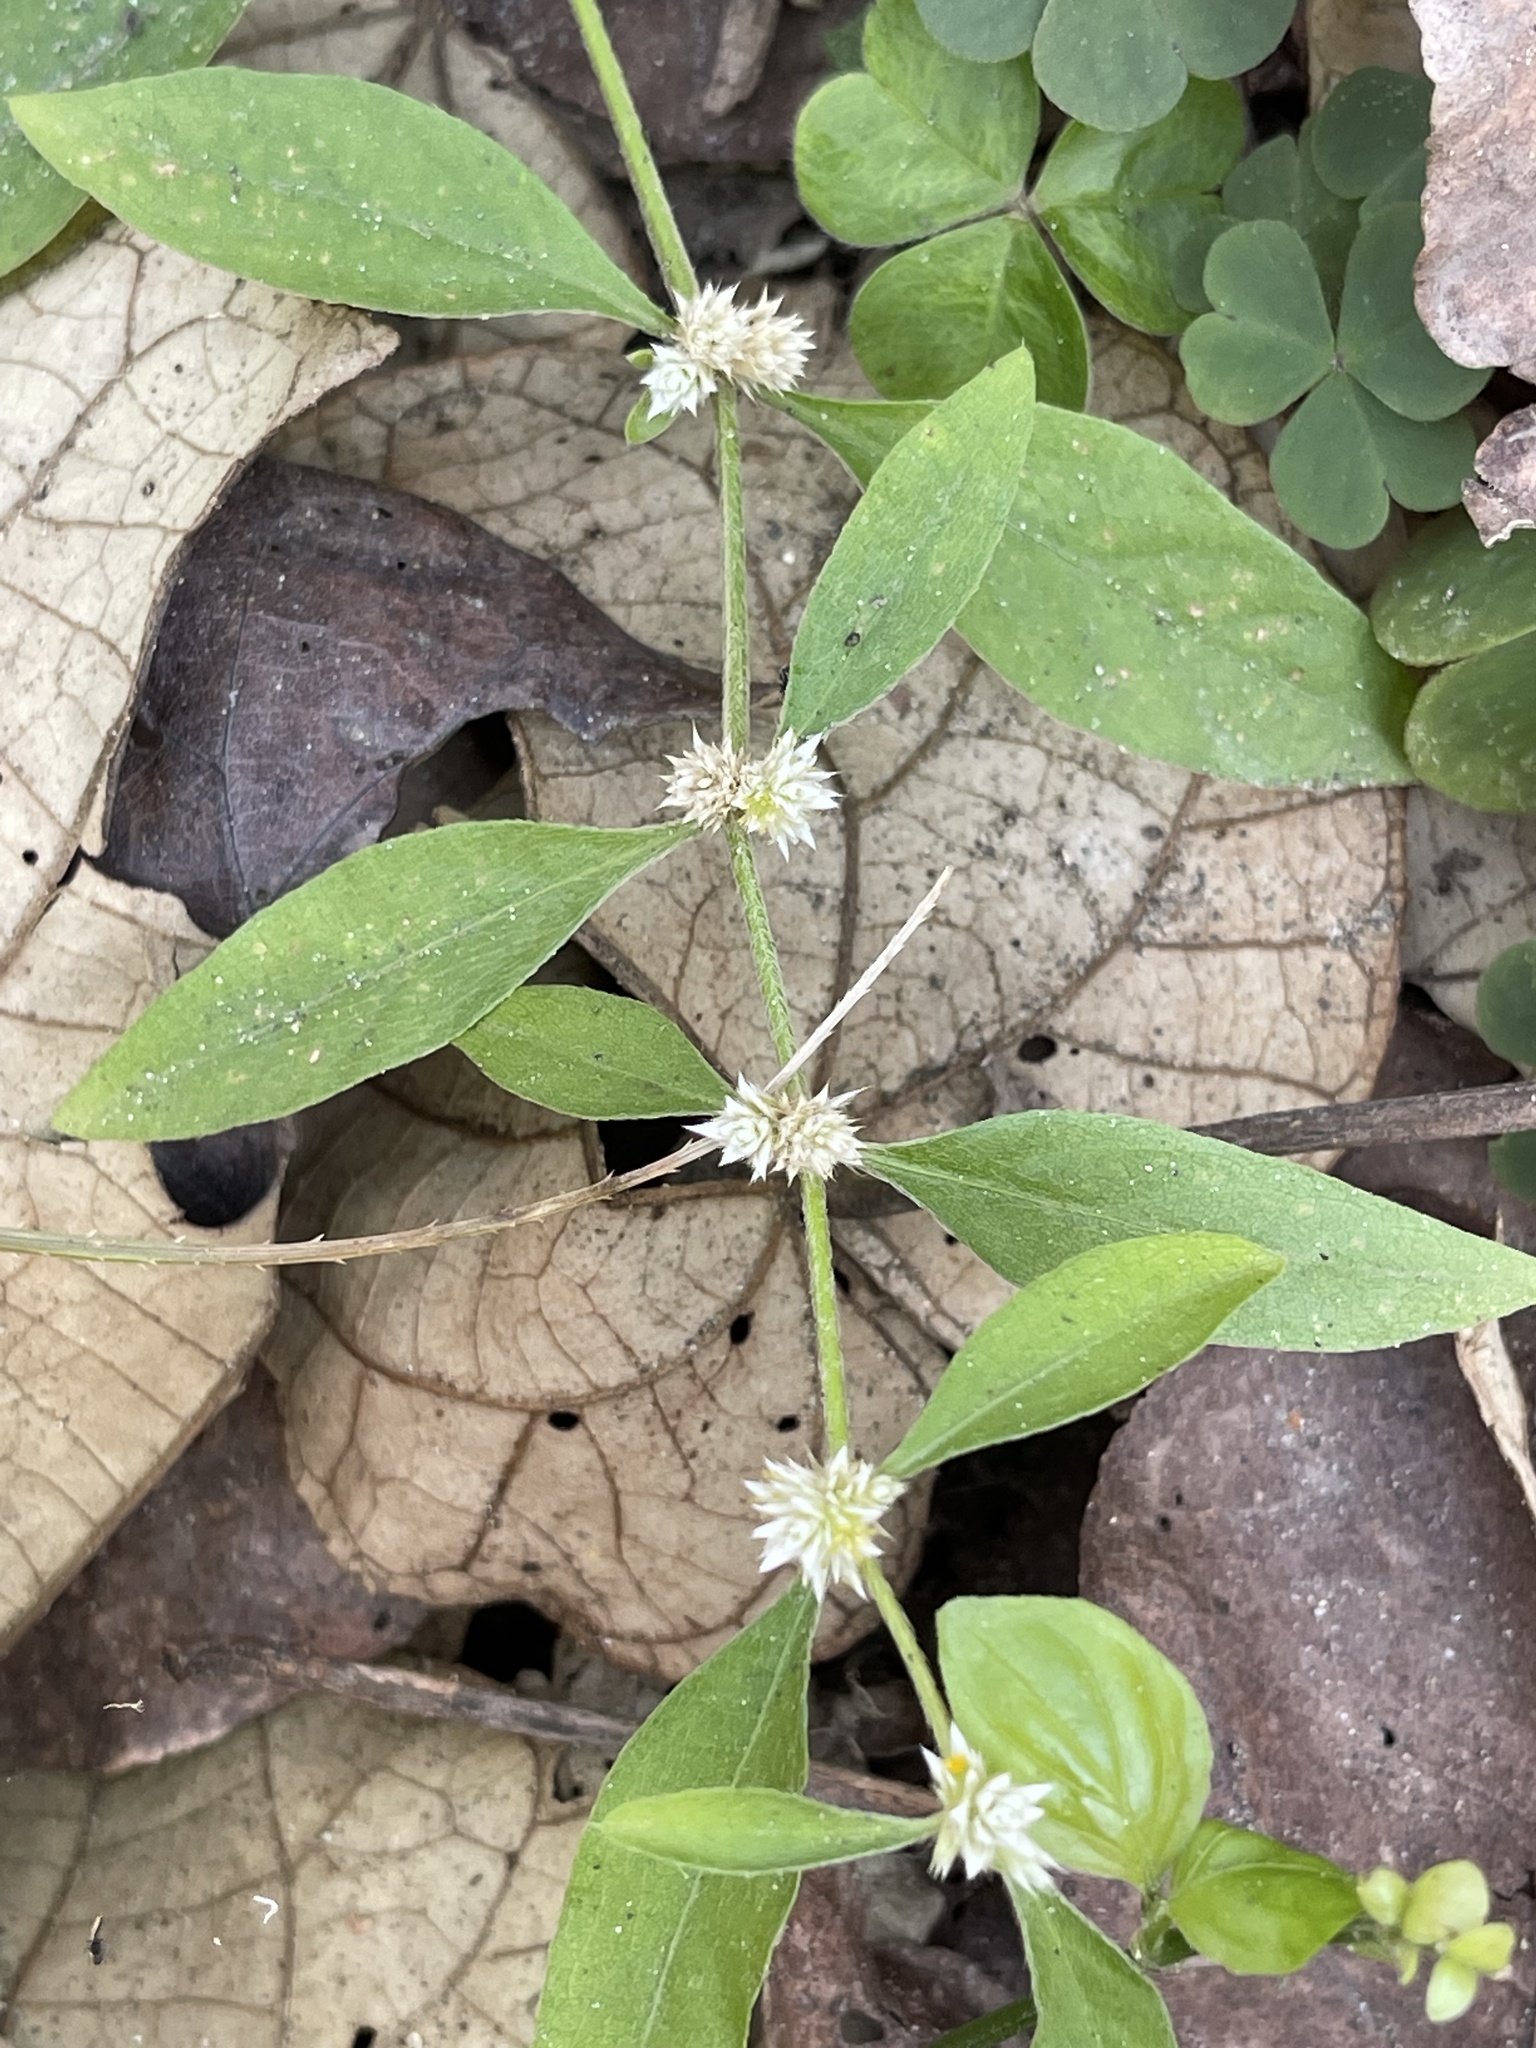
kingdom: Plantae
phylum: Tracheophyta
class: Magnoliopsida
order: Caryophyllales
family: Amaranthaceae
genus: Alternanthera
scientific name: Alternanthera ficoidea
